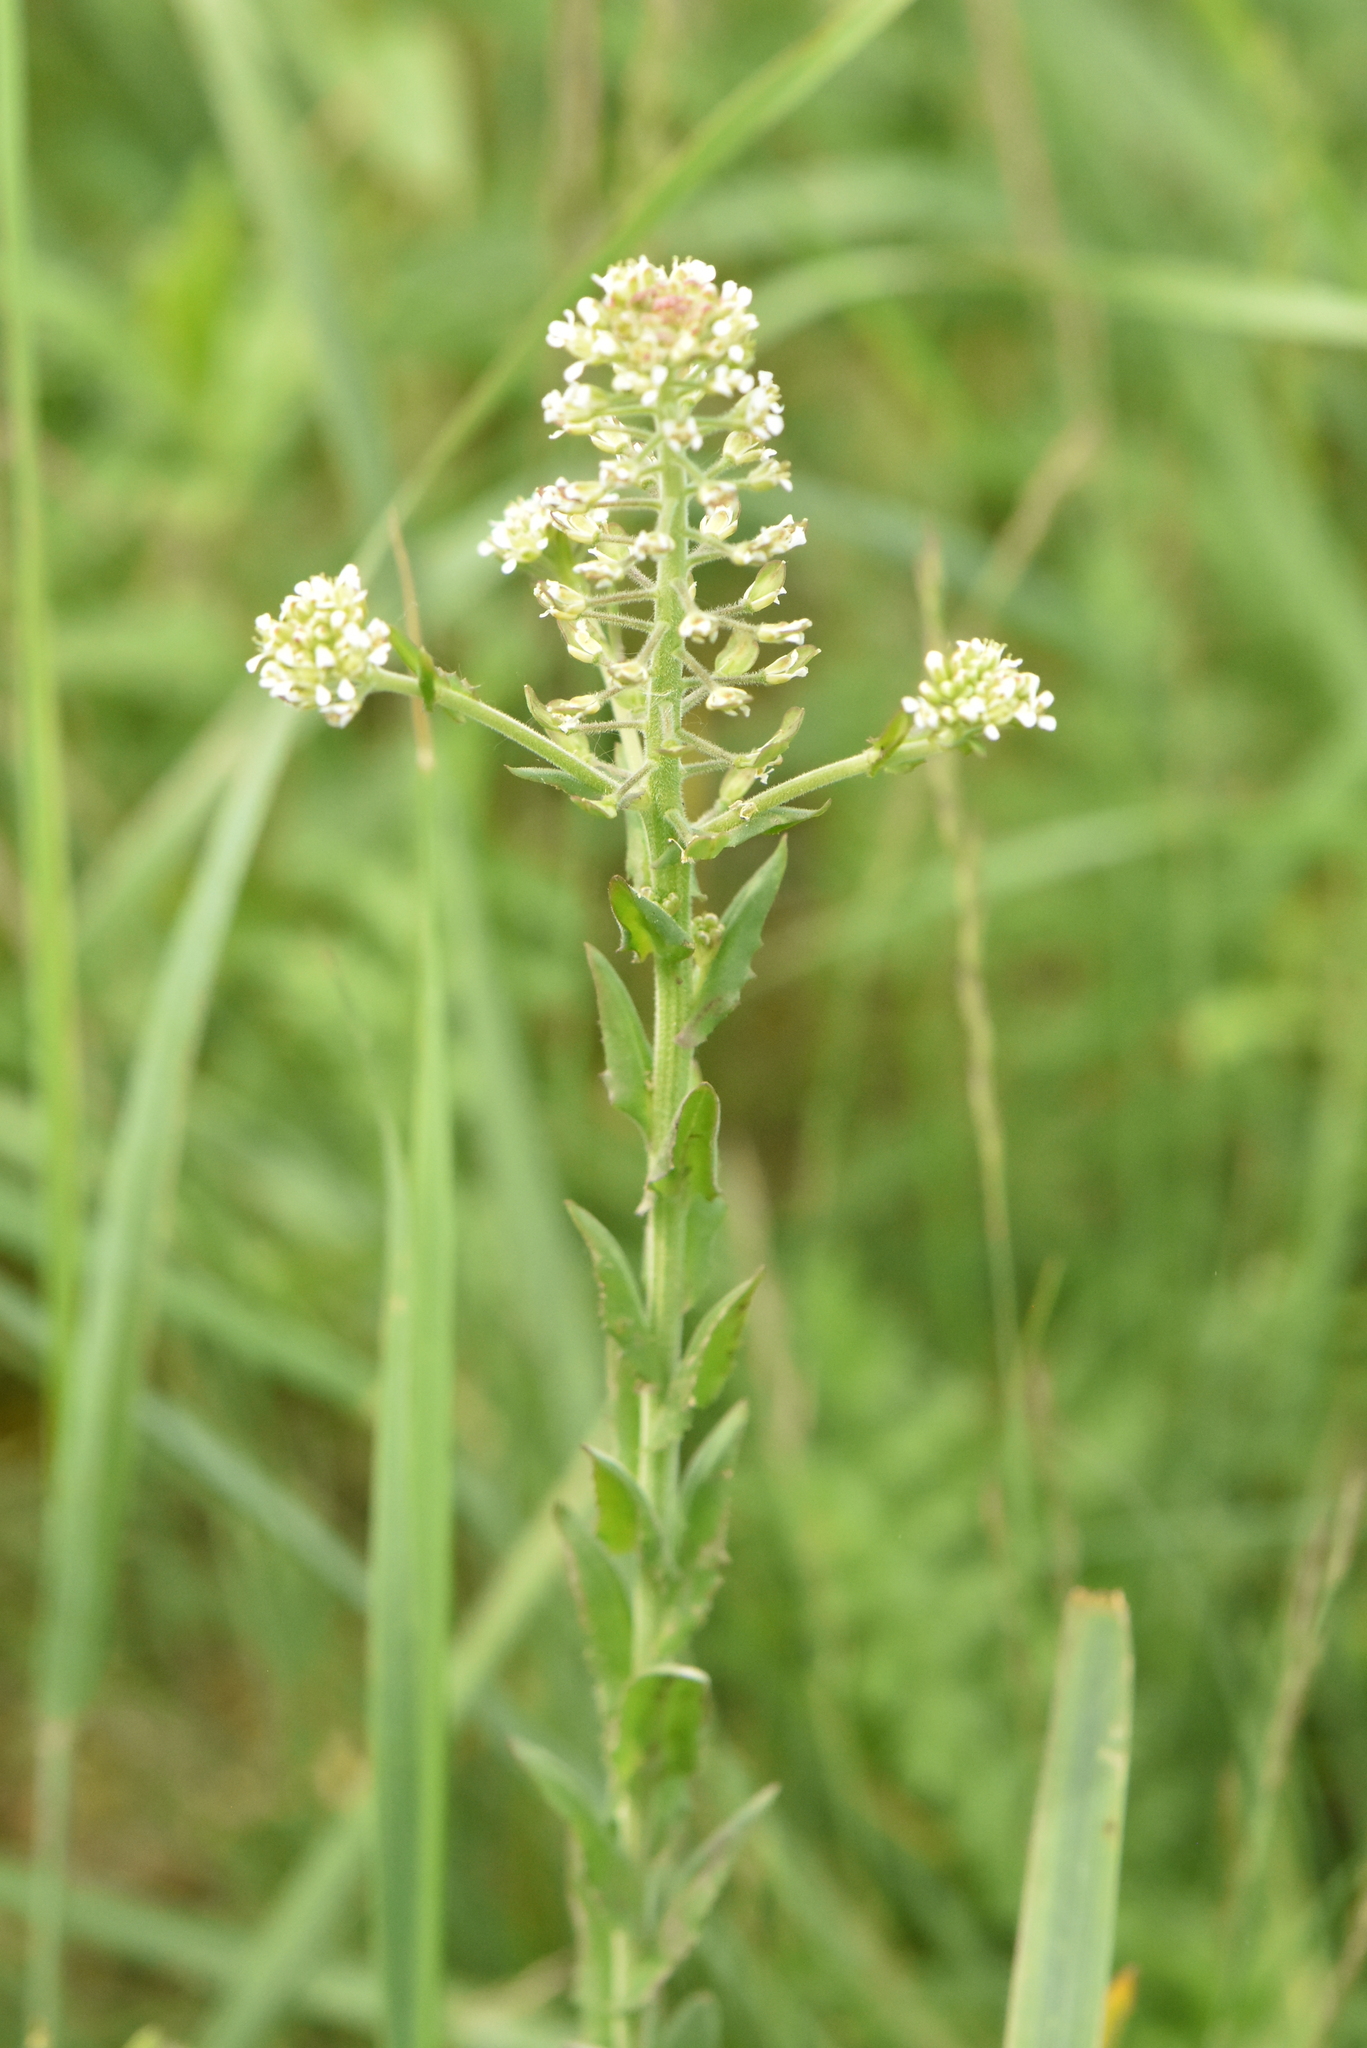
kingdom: Plantae
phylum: Tracheophyta
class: Magnoliopsida
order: Brassicales
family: Brassicaceae
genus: Lepidium
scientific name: Lepidium campestre
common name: Field pepperwort
